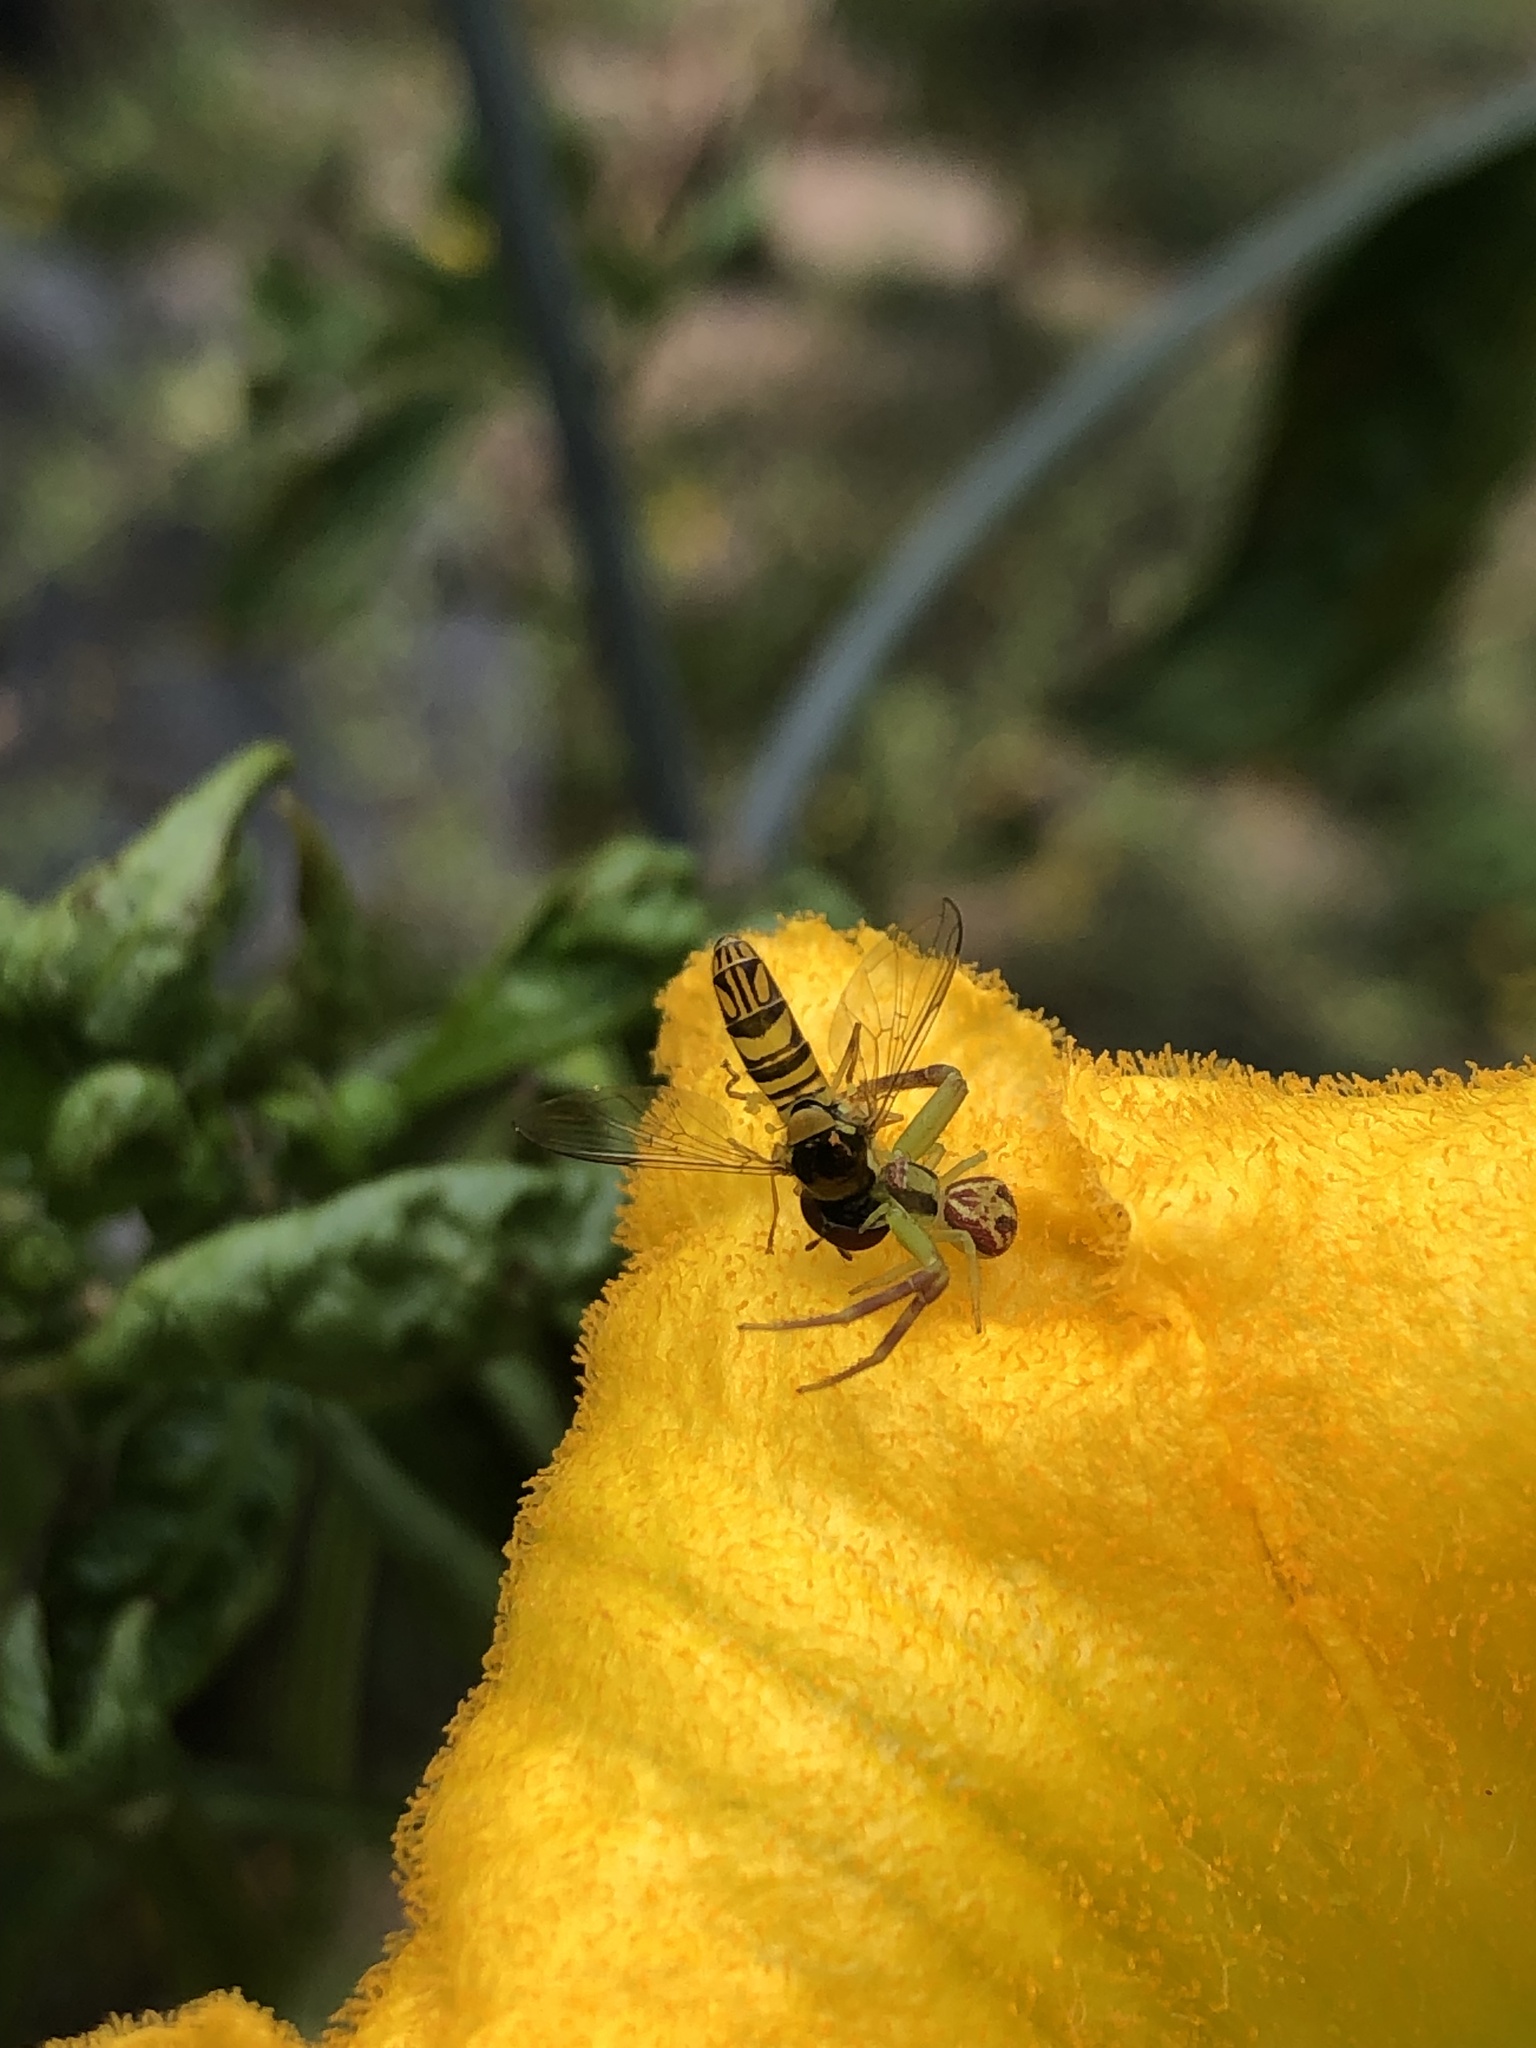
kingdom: Animalia
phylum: Arthropoda
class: Insecta
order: Diptera
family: Syrphidae
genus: Allograpta
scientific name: Allograpta obliqua
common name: Common oblique syrphid
